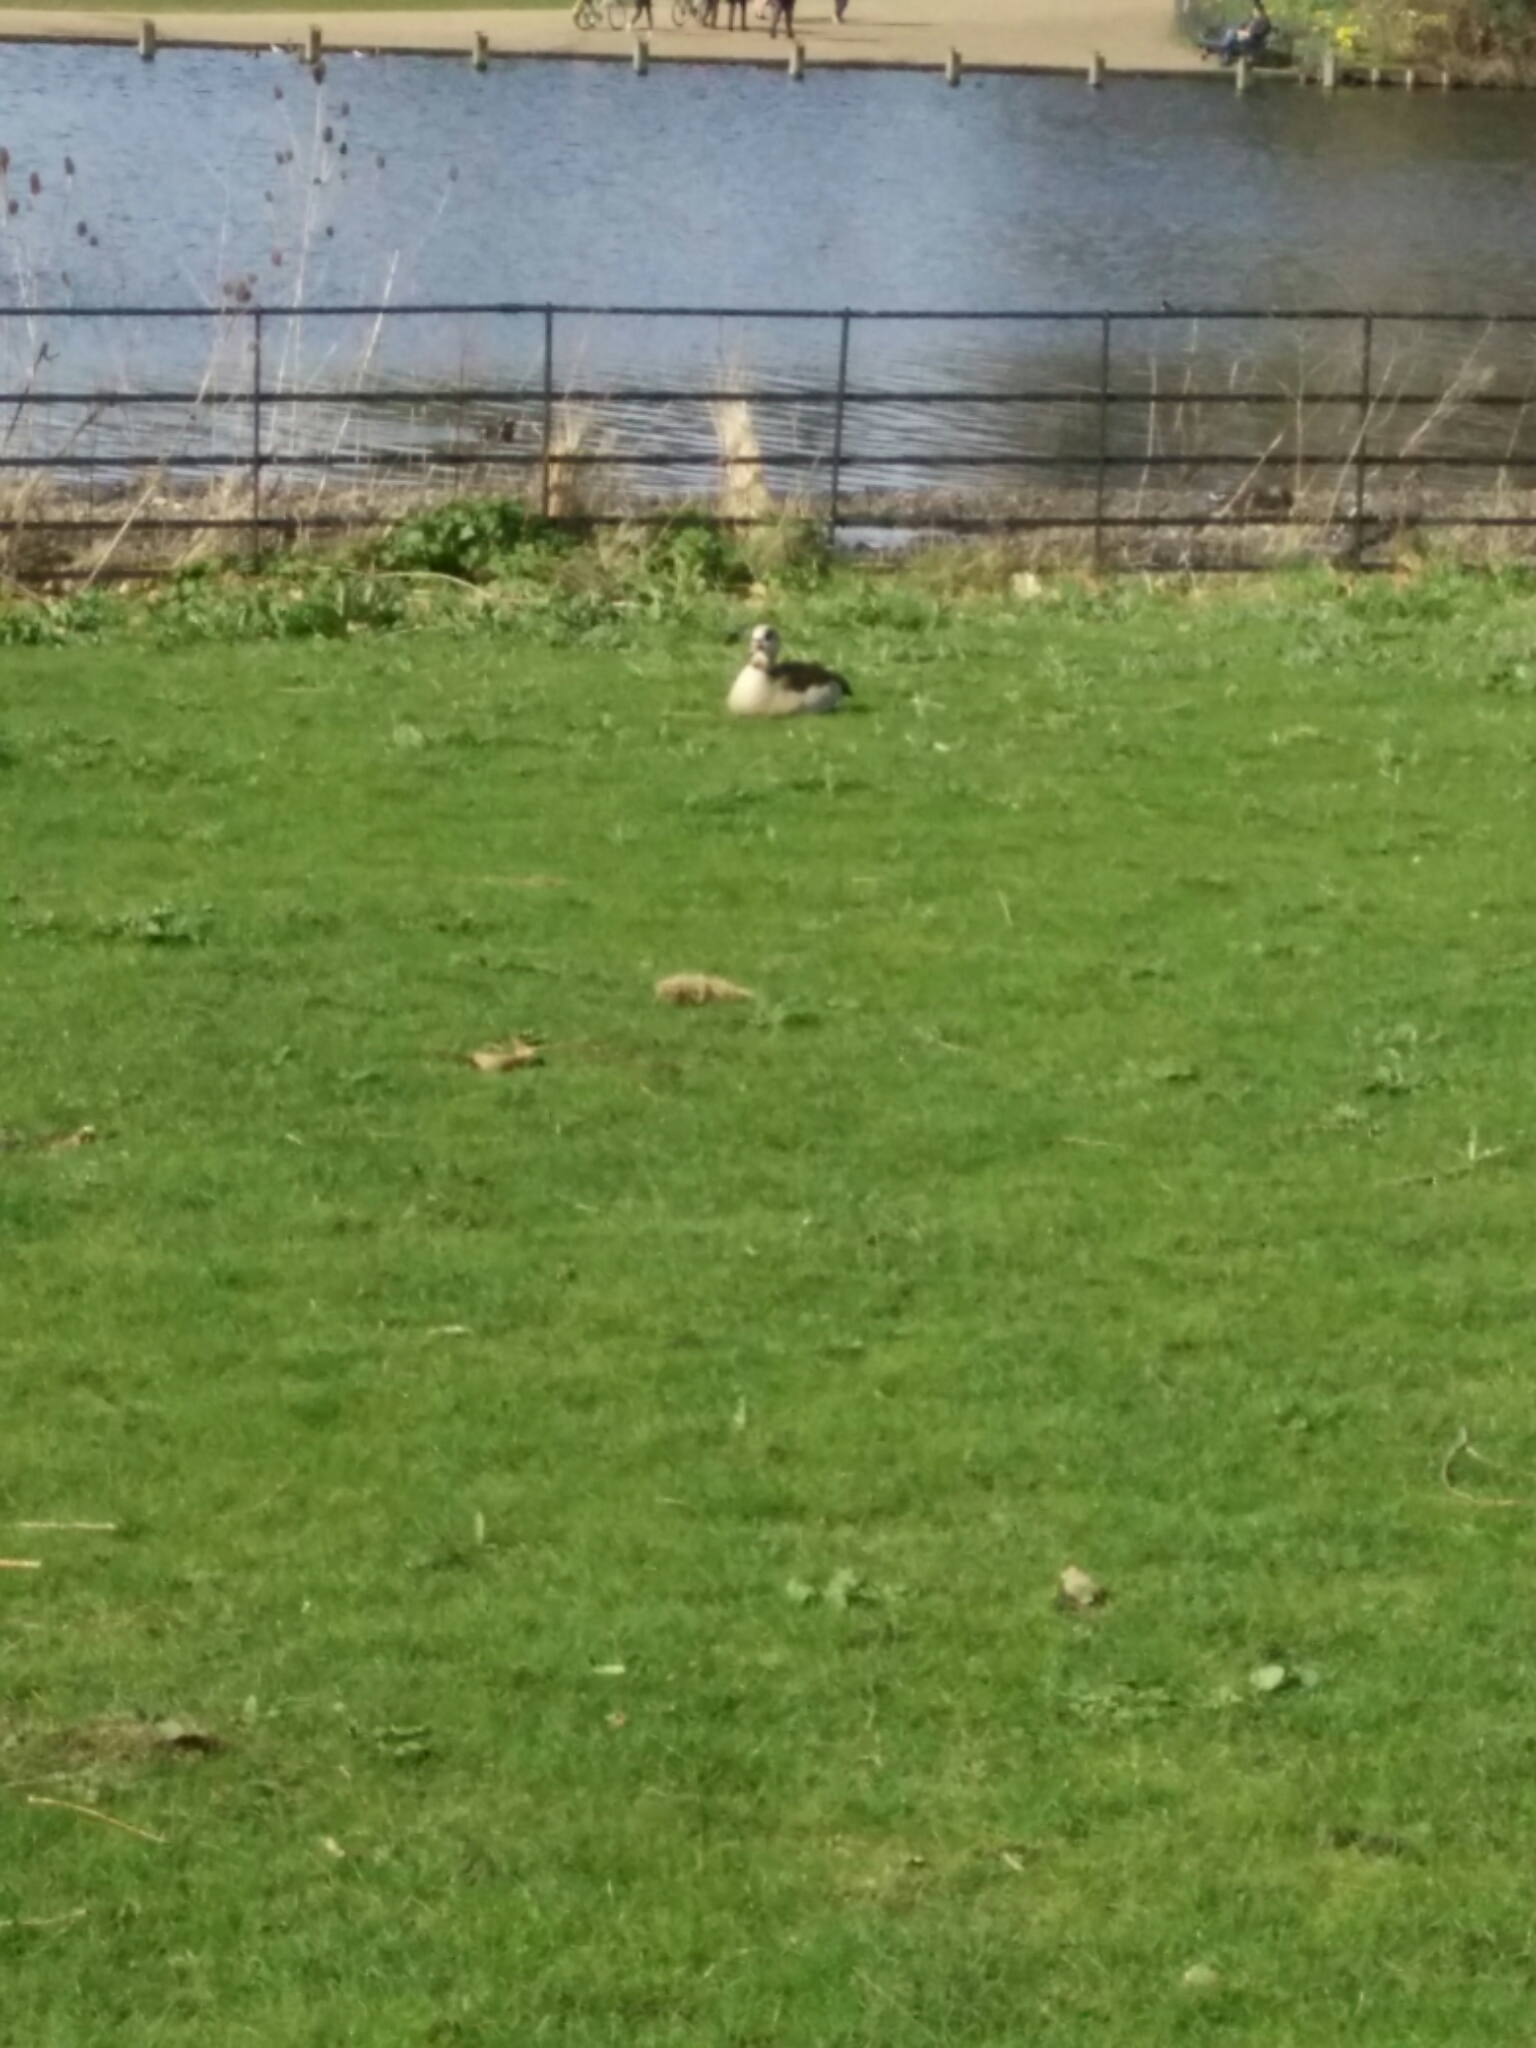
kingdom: Animalia
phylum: Chordata
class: Aves
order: Anseriformes
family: Anatidae
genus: Alopochen
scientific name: Alopochen aegyptiaca
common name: Egyptian goose
